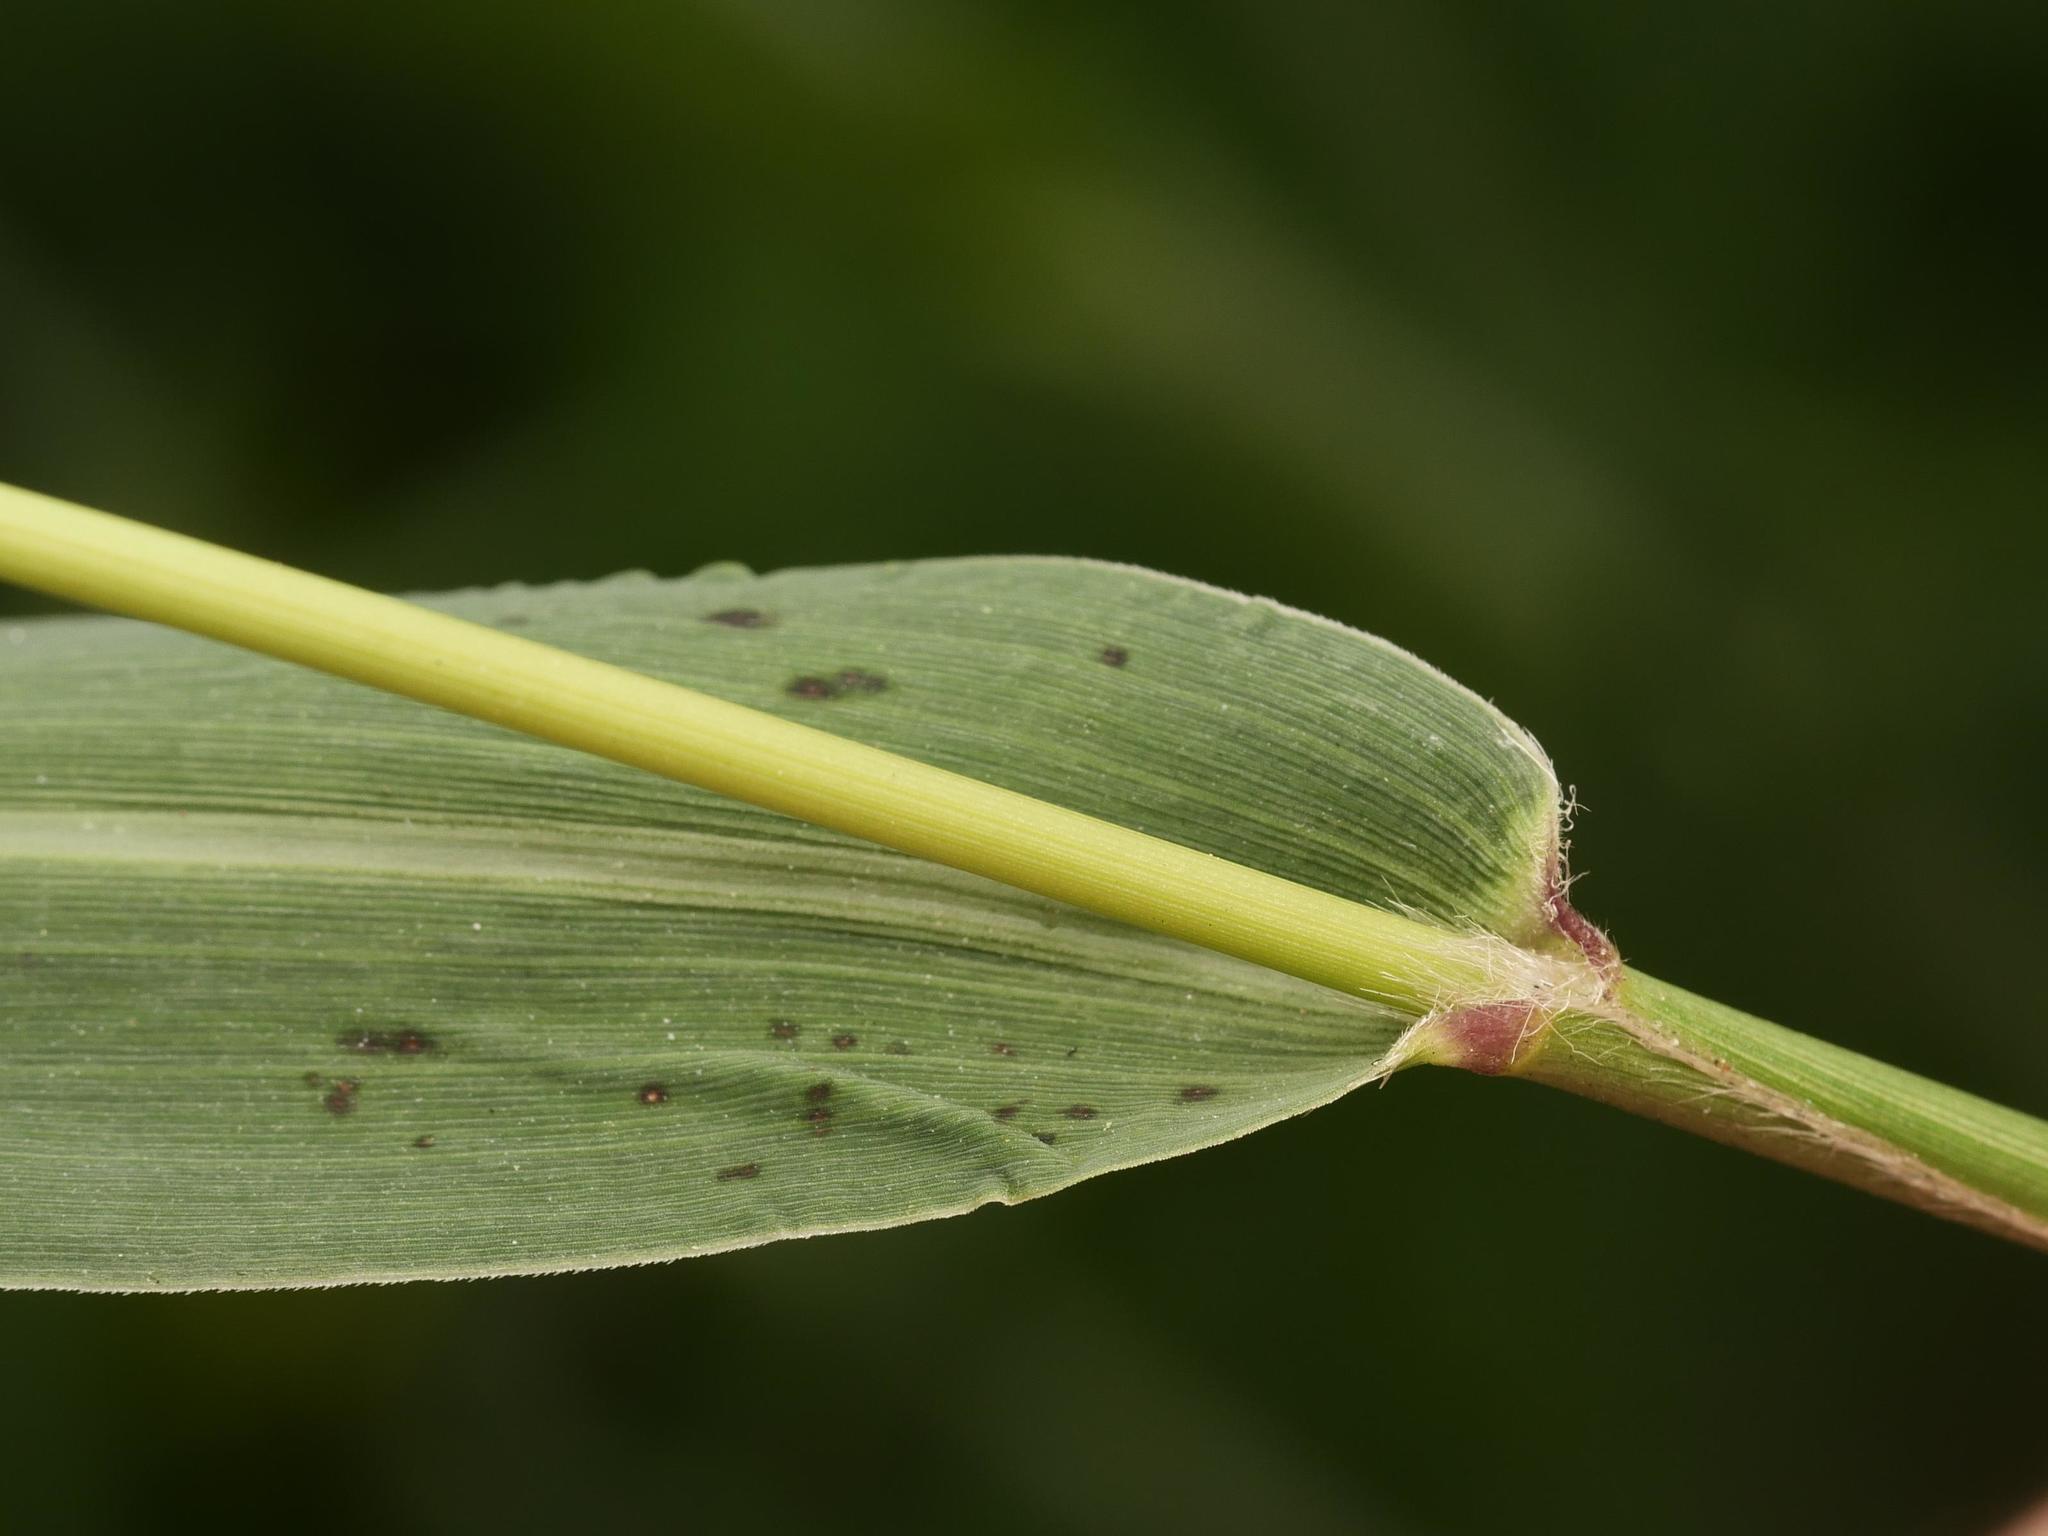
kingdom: Plantae
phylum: Tracheophyta
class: Liliopsida
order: Poales
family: Poaceae
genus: Setaria
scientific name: Setaria viridis
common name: Green bristlegrass
